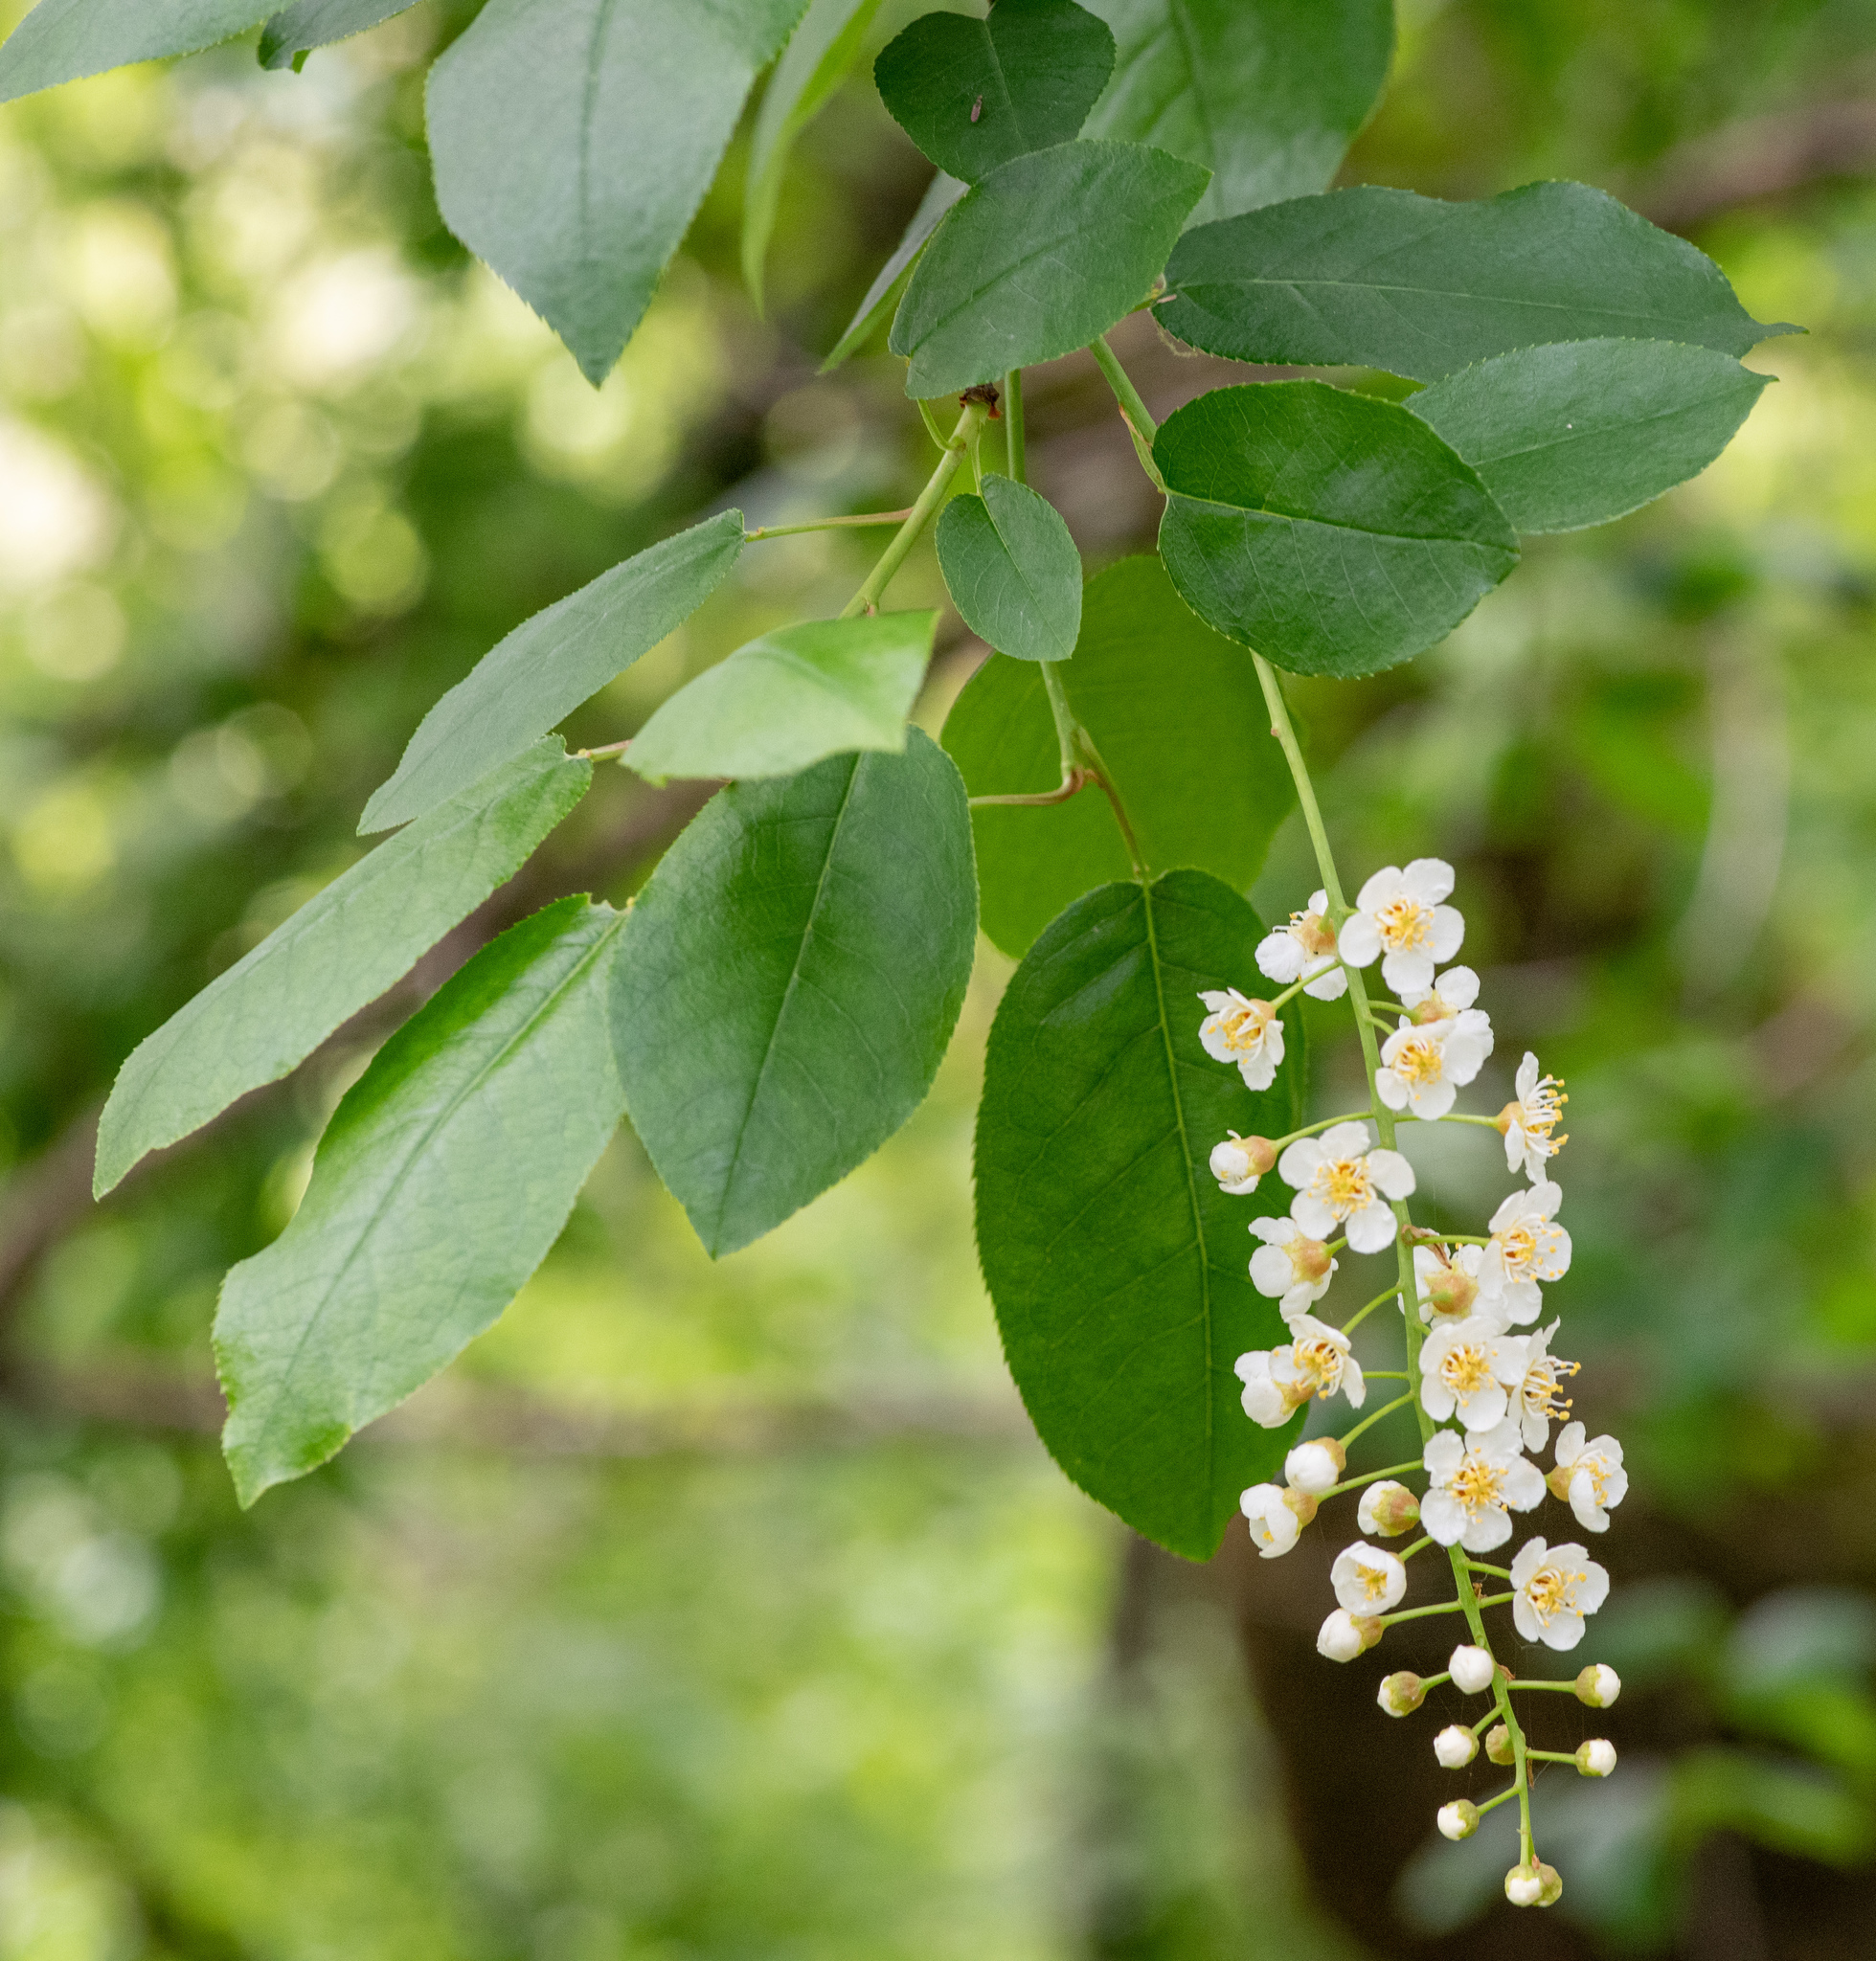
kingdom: Plantae
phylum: Tracheophyta
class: Magnoliopsida
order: Rosales
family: Rosaceae
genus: Prunus
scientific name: Prunus virginiana
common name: Chokecherry
